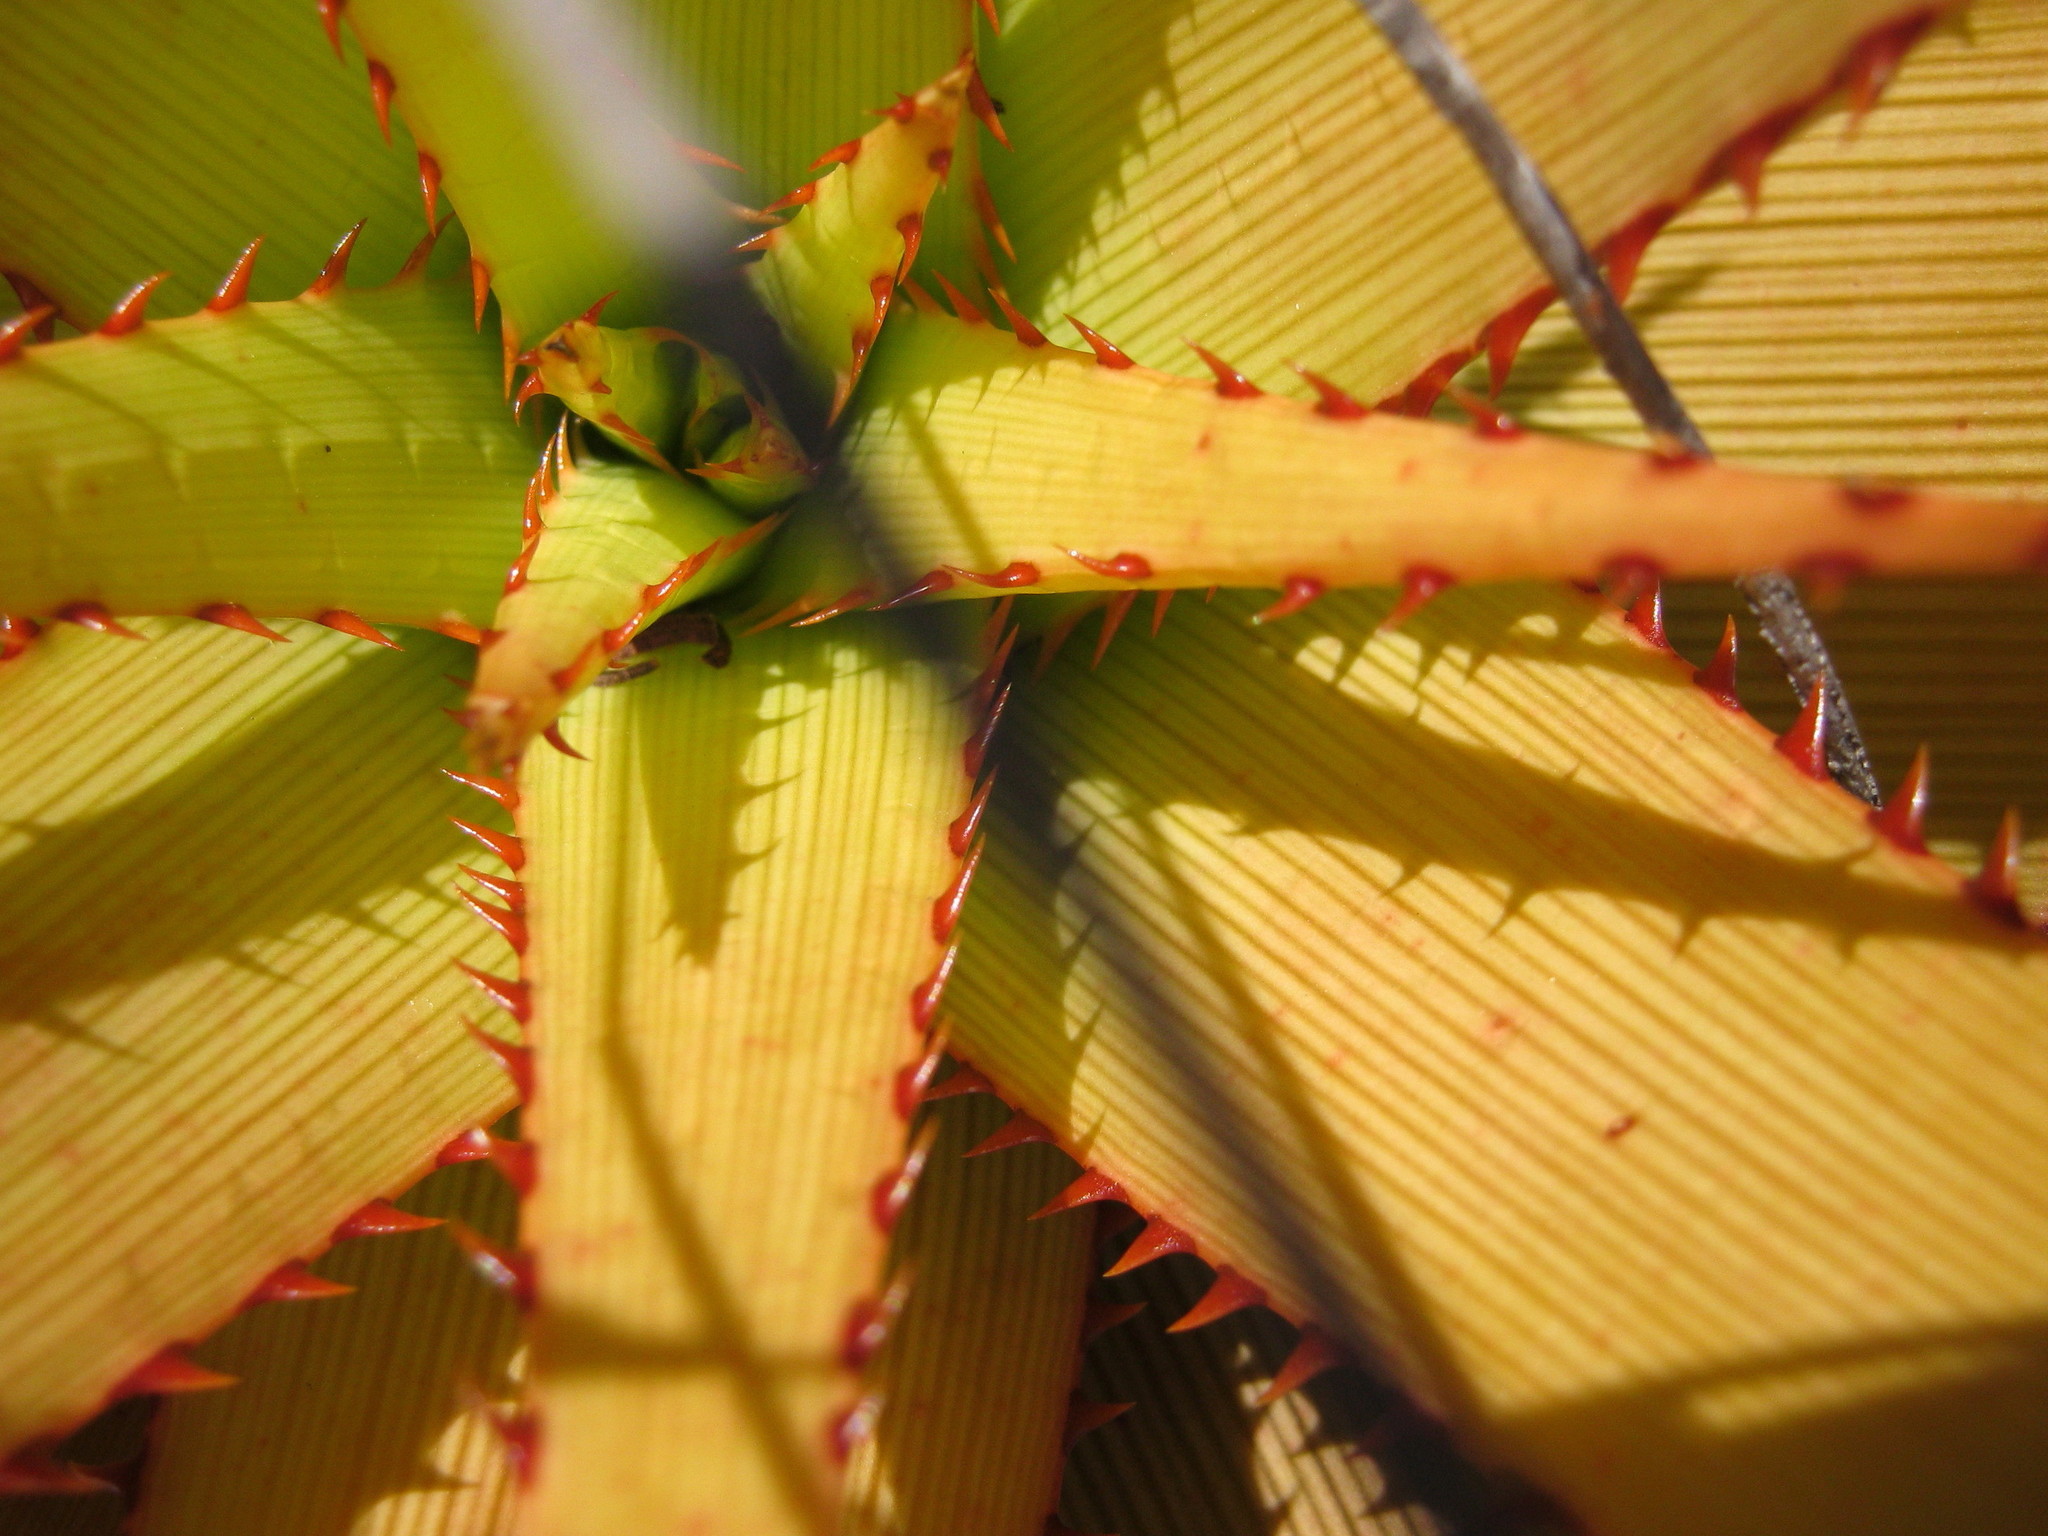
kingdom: Plantae
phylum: Tracheophyta
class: Liliopsida
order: Asparagales
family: Asphodelaceae
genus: Aloe
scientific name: Aloe lineata
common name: Lined red-spined aloe
